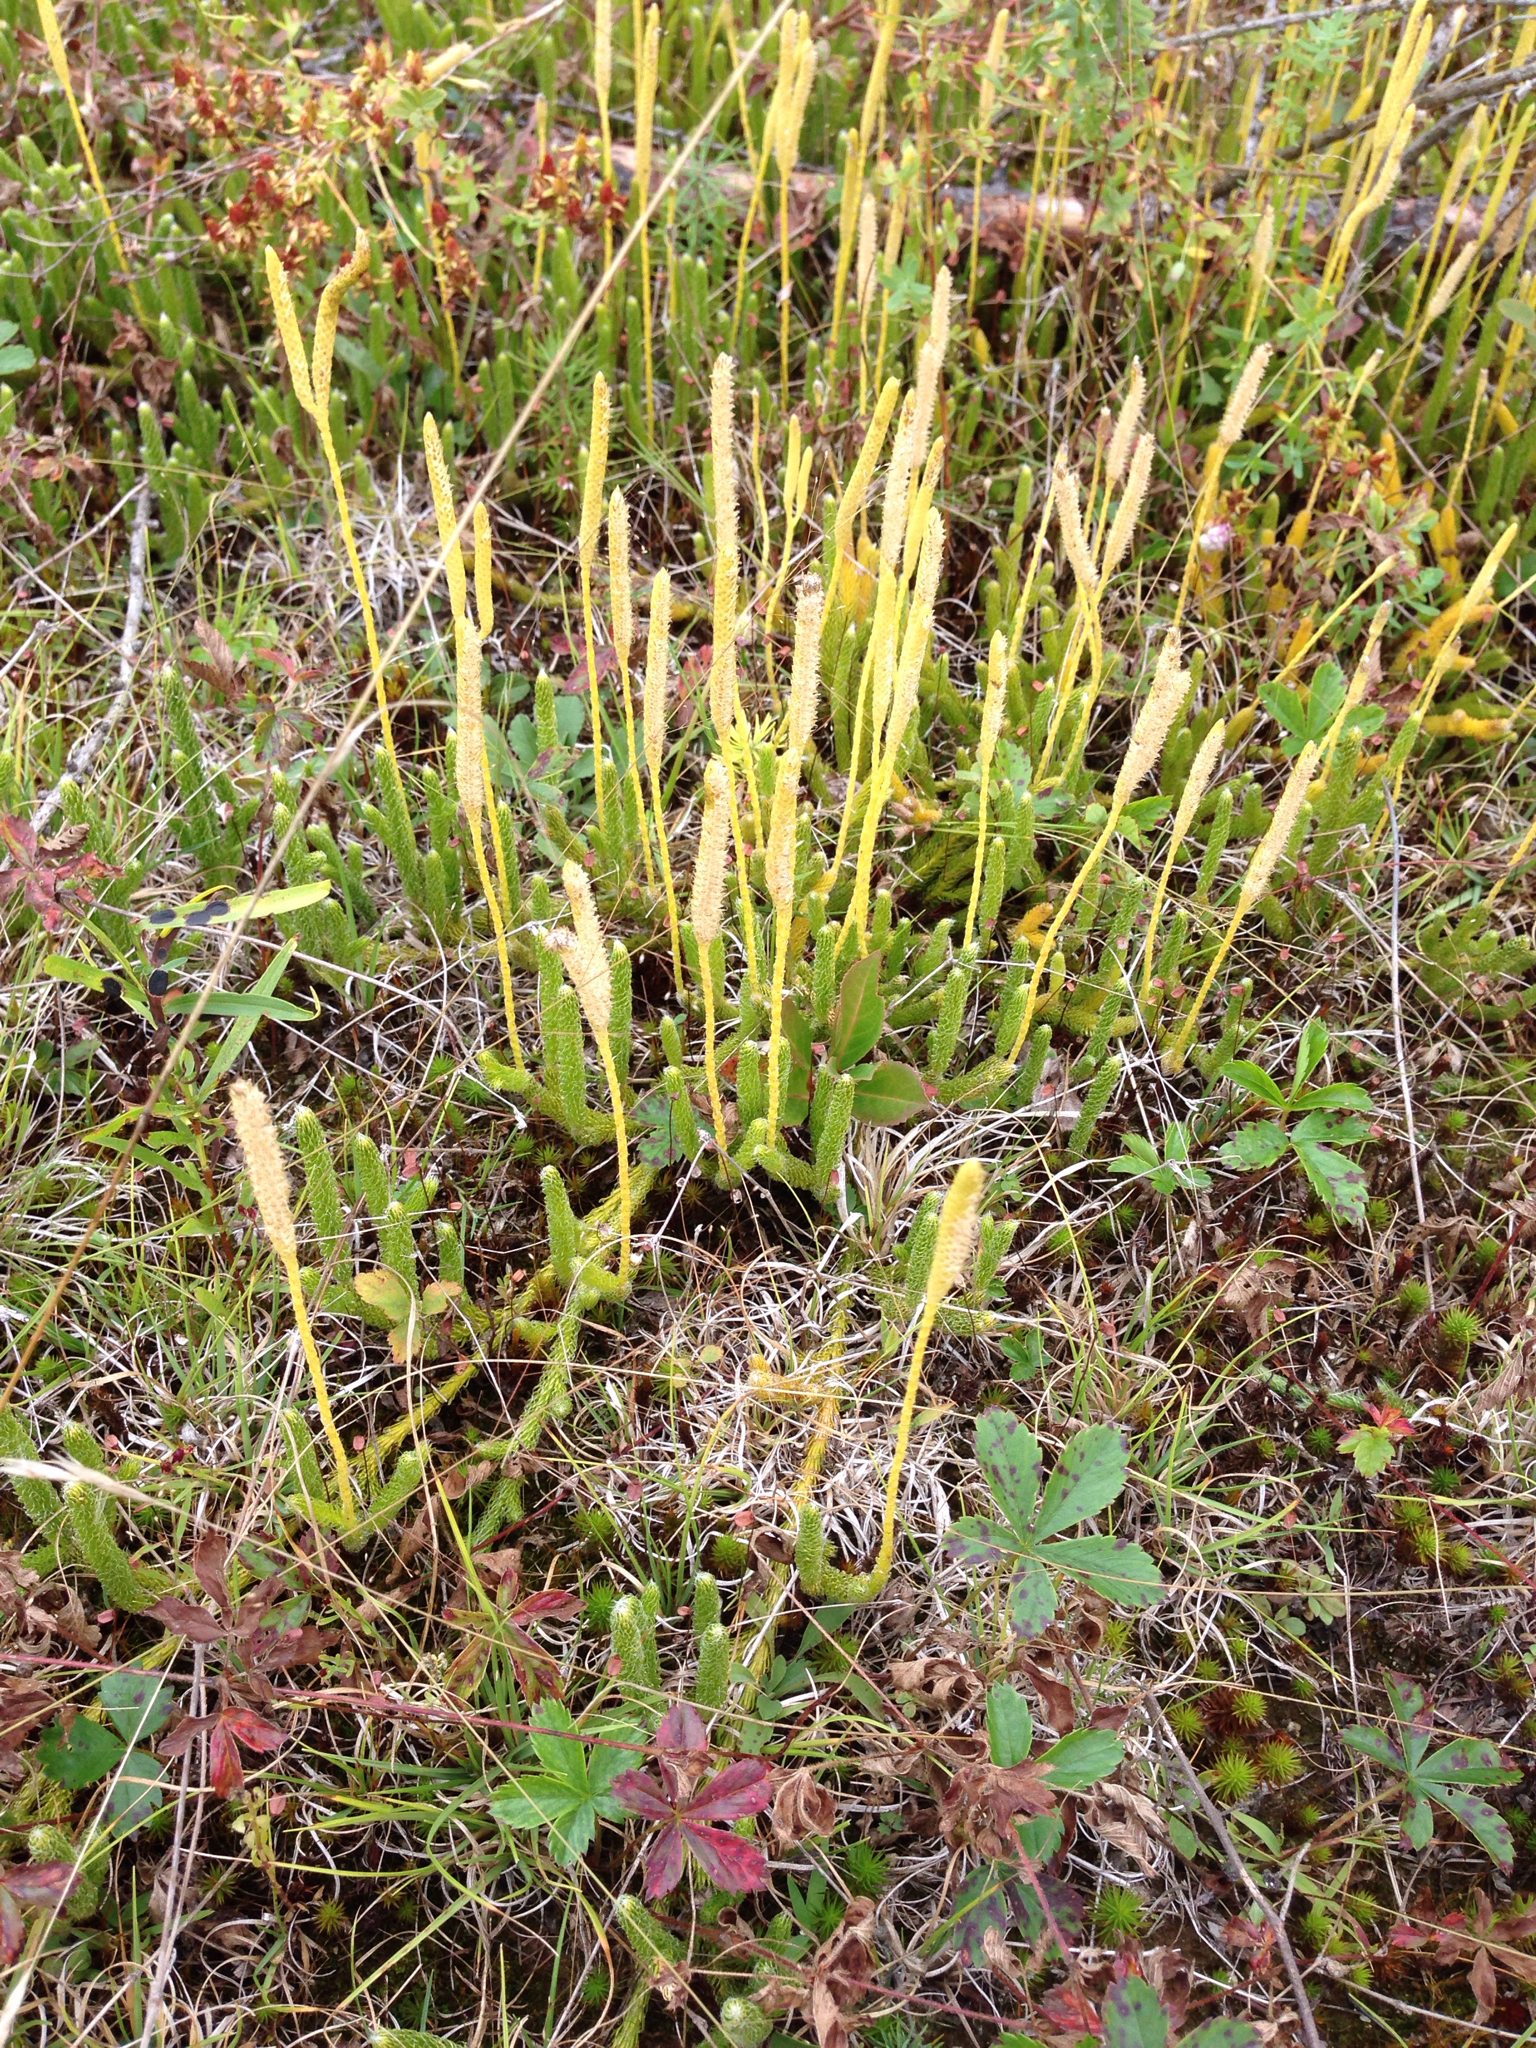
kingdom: Plantae
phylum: Tracheophyta
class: Lycopodiopsida
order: Lycopodiales
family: Lycopodiaceae
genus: Lycopodium
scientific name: Lycopodium lagopus
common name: One-cone clubmoss
